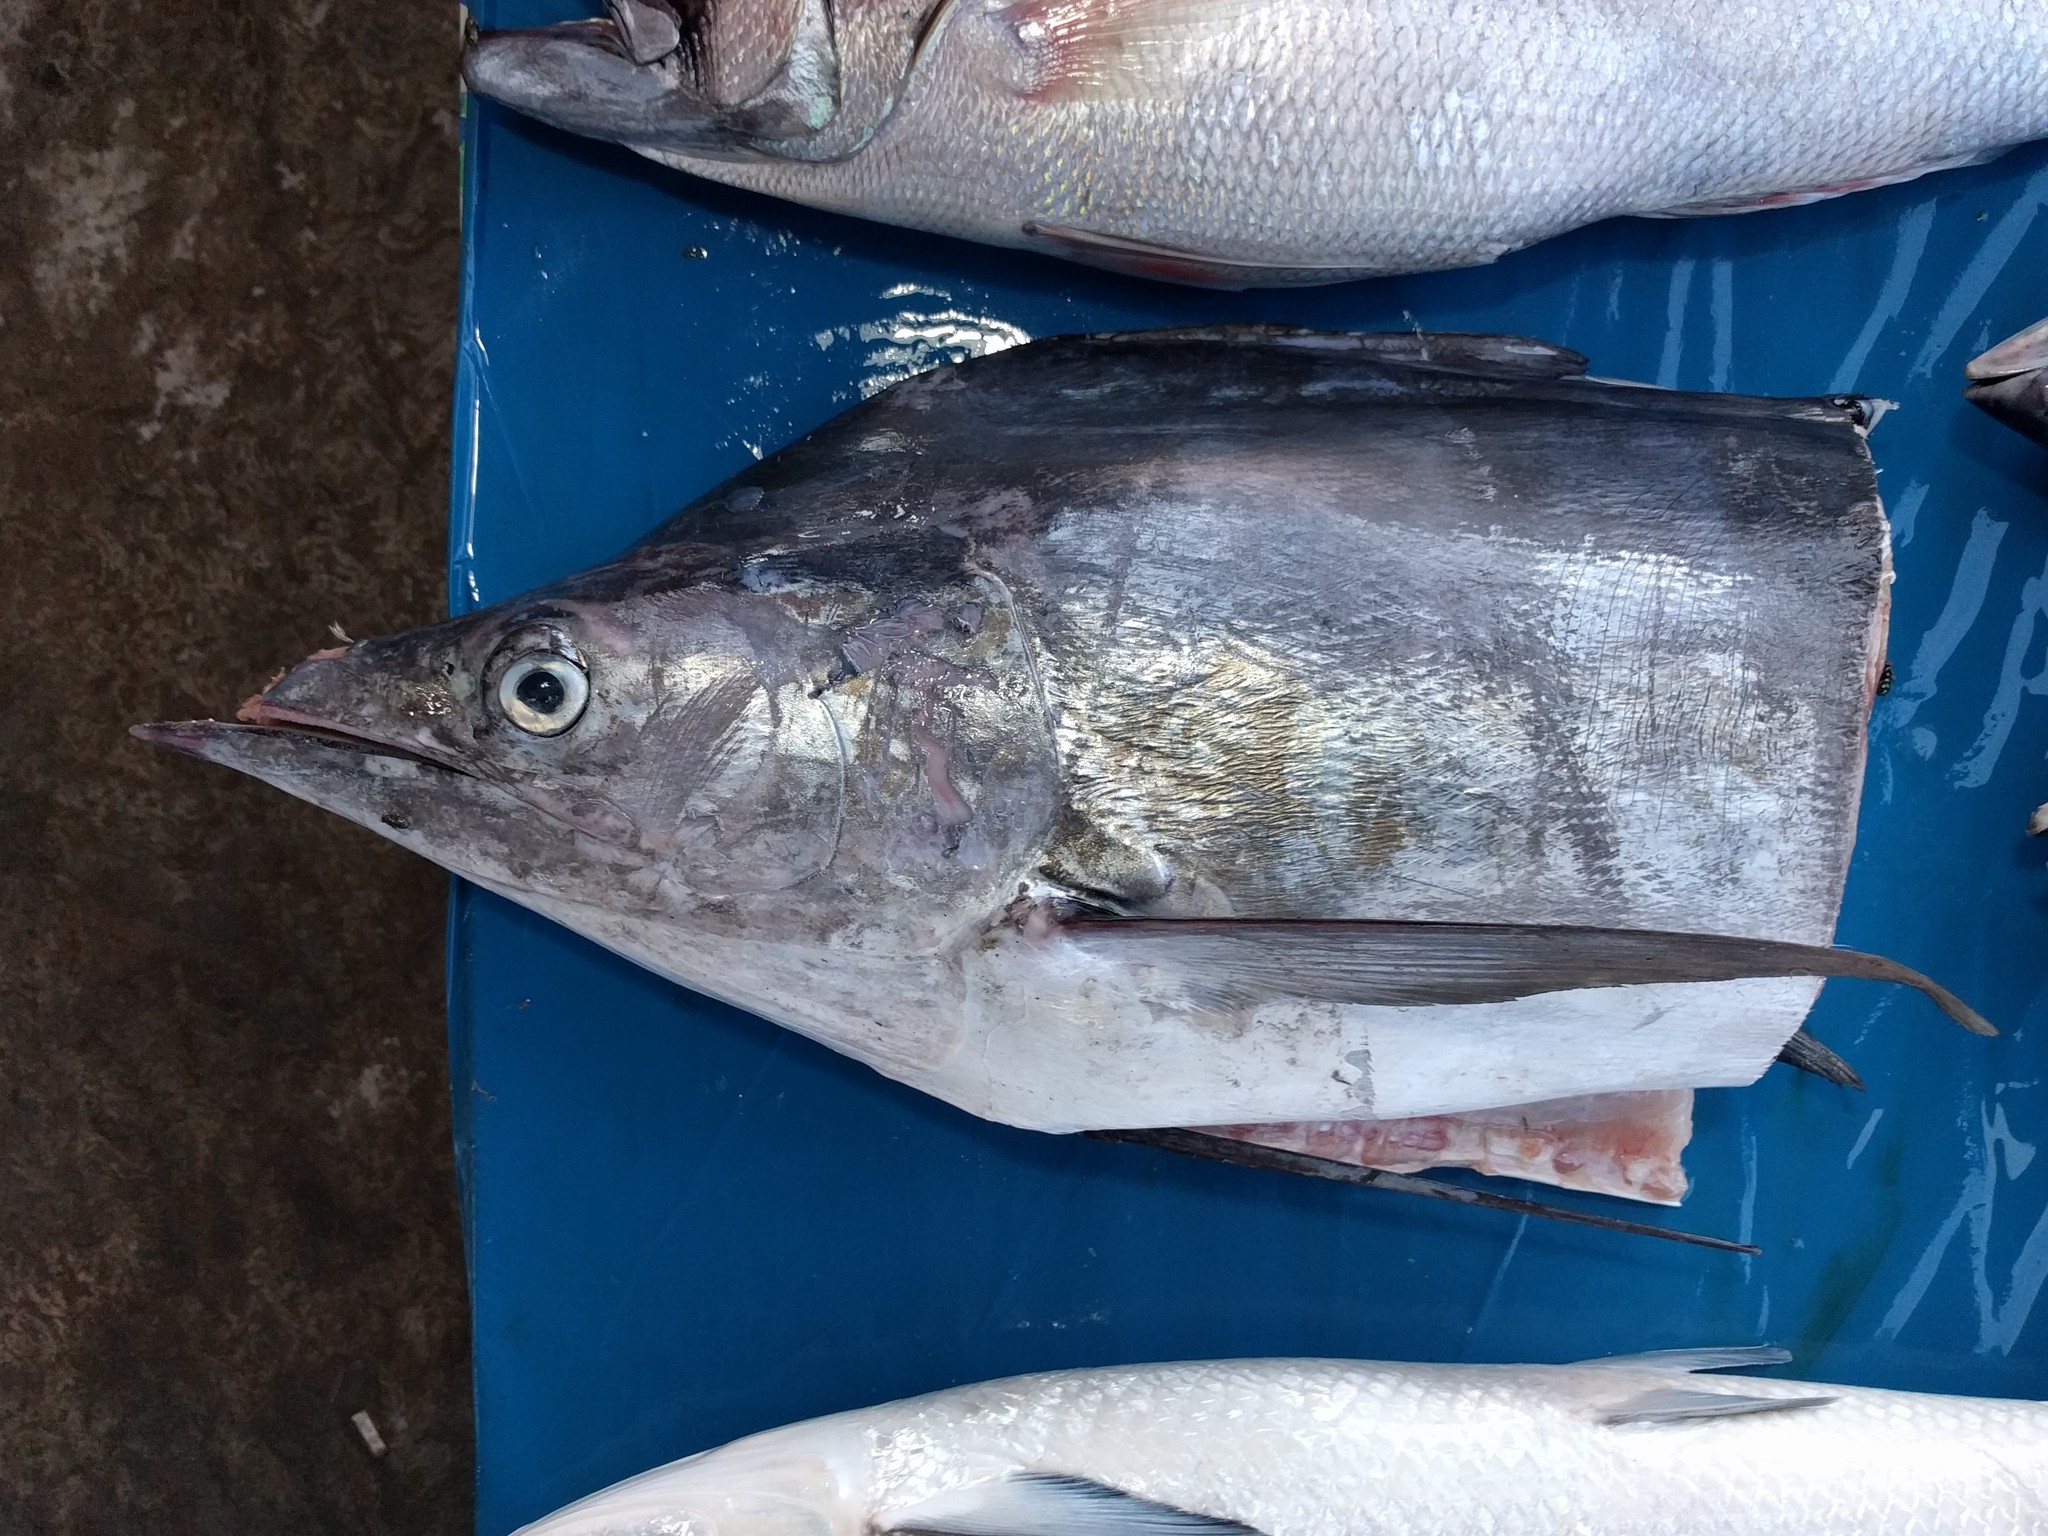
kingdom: Animalia
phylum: Chordata
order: Perciformes
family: Istiophoridae
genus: Makaira
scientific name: Makaira nigricans
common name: Blue marlin
